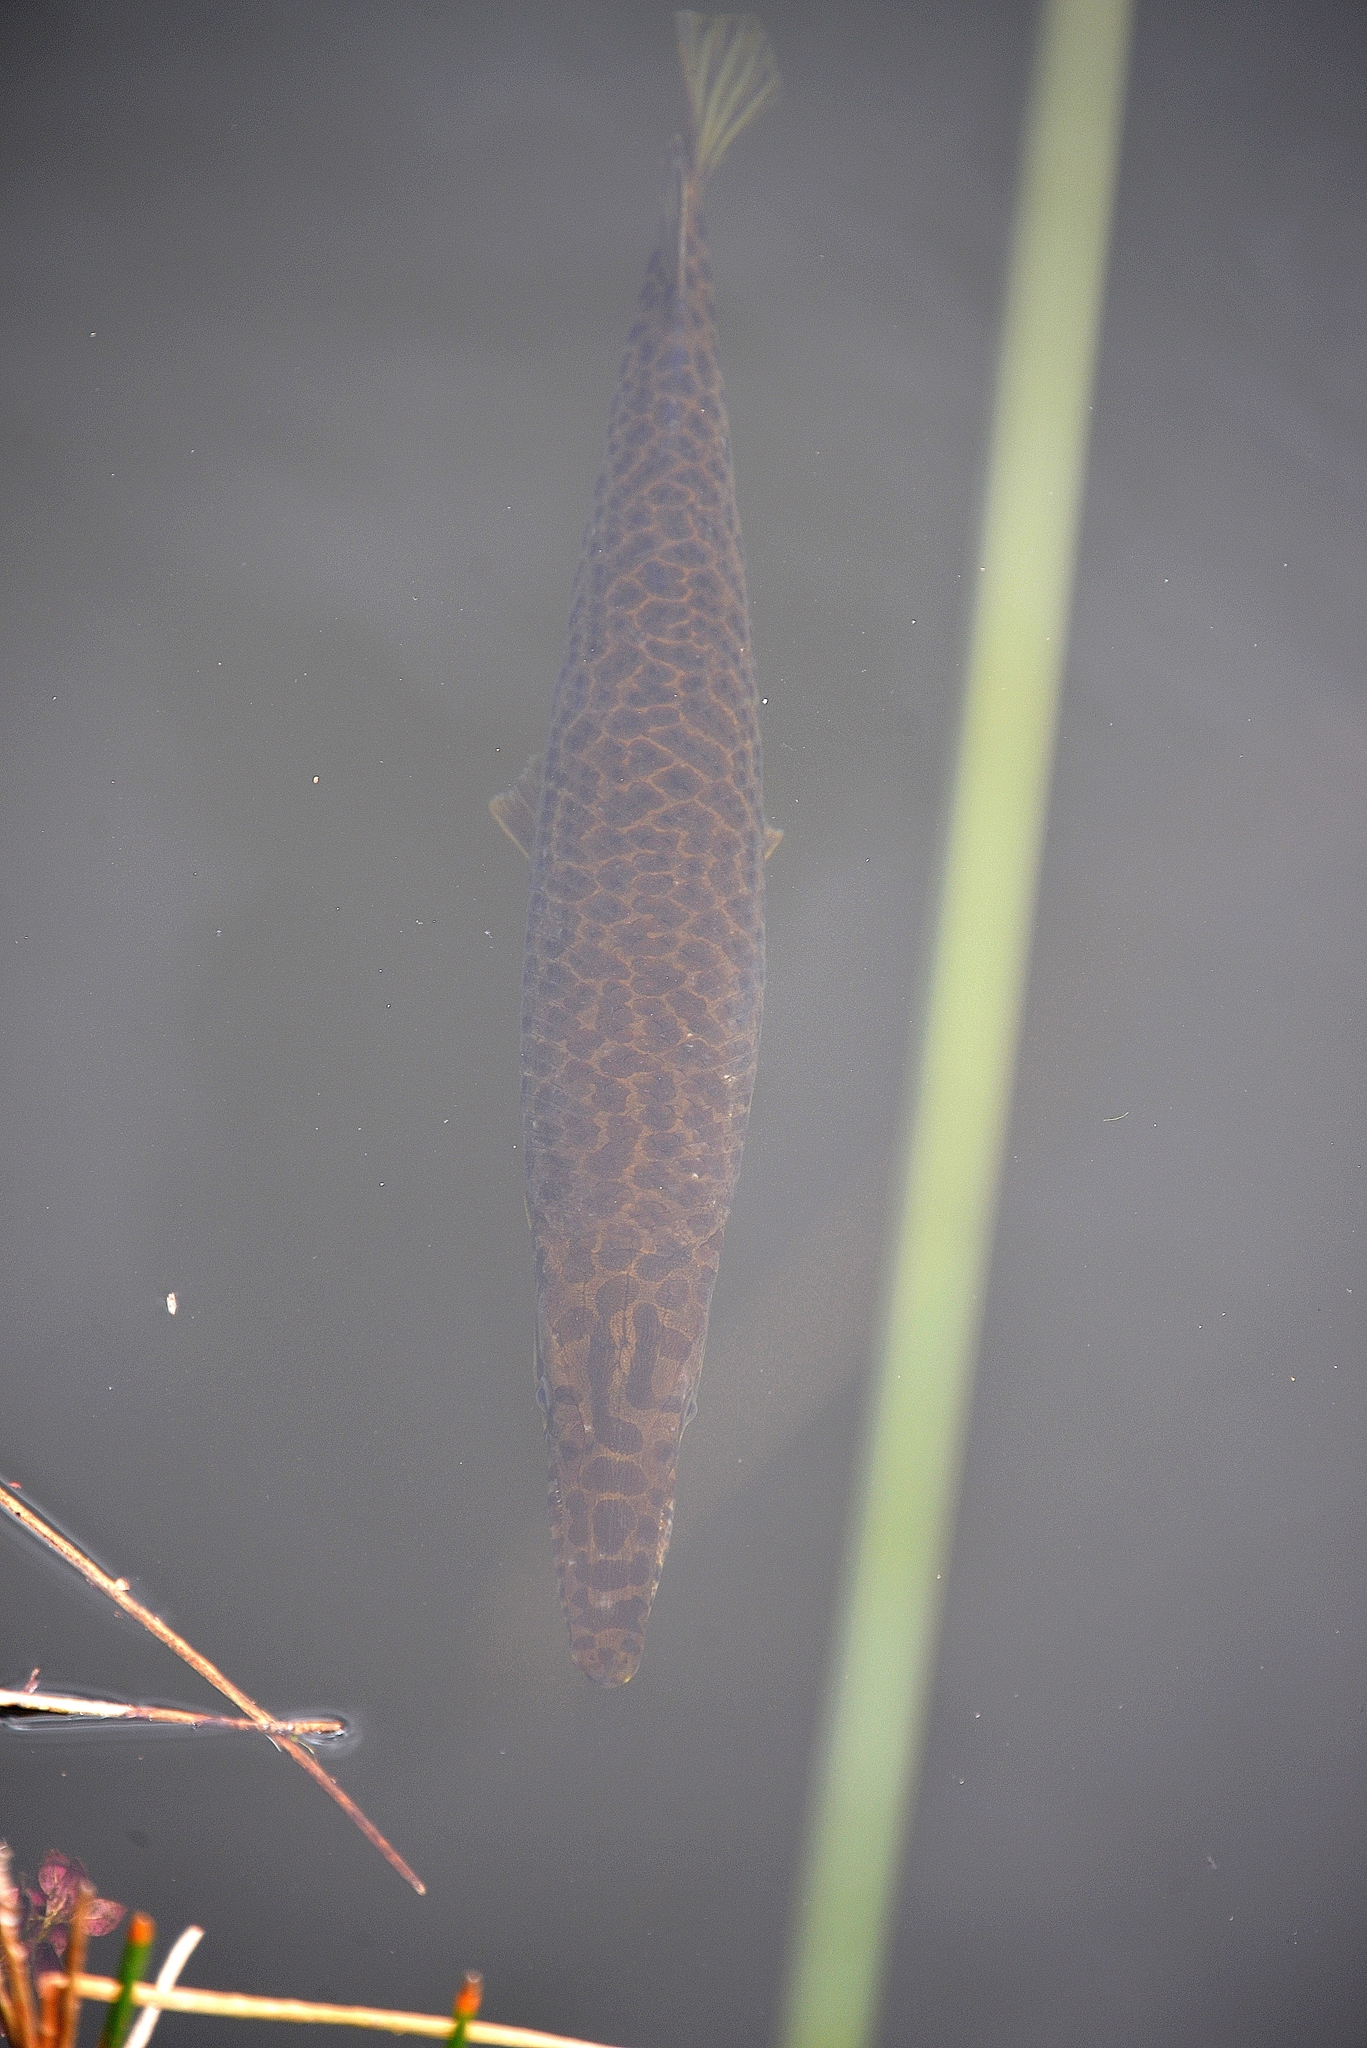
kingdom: Animalia
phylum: Chordata
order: Lepisosteiformes
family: Lepisosteidae
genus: Lepisosteus
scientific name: Lepisosteus platyrhincus
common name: Florida gar
